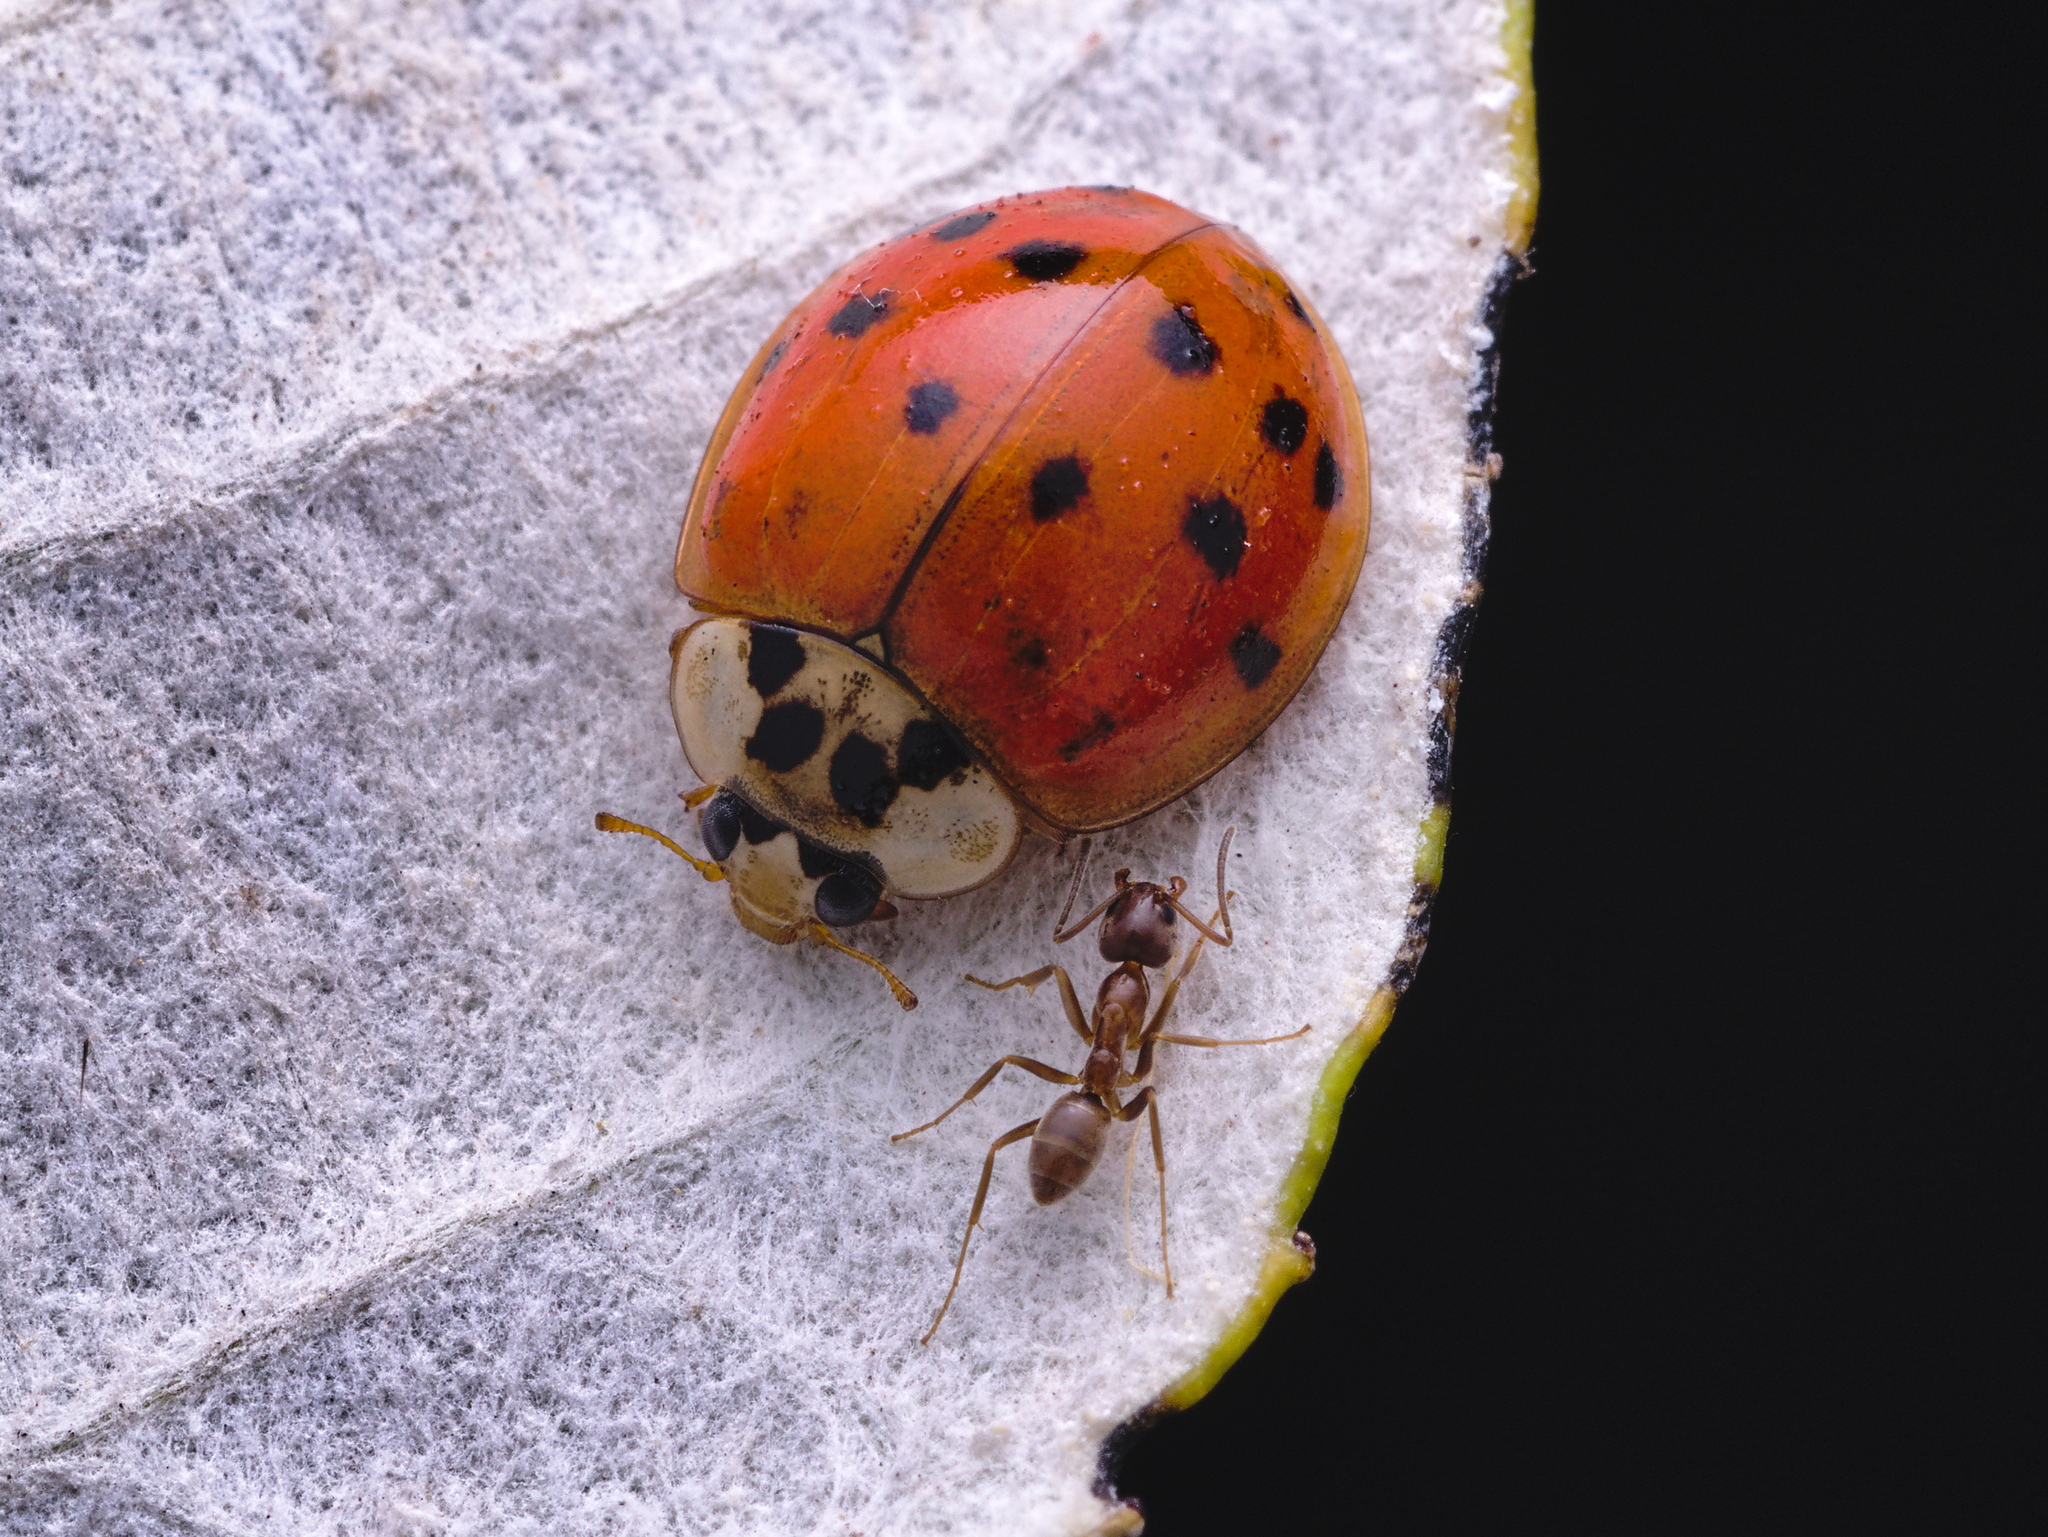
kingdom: Animalia
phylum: Arthropoda
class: Insecta
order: Coleoptera
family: Coccinellidae
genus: Harmonia
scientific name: Harmonia axyridis
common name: Harlequin ladybird
